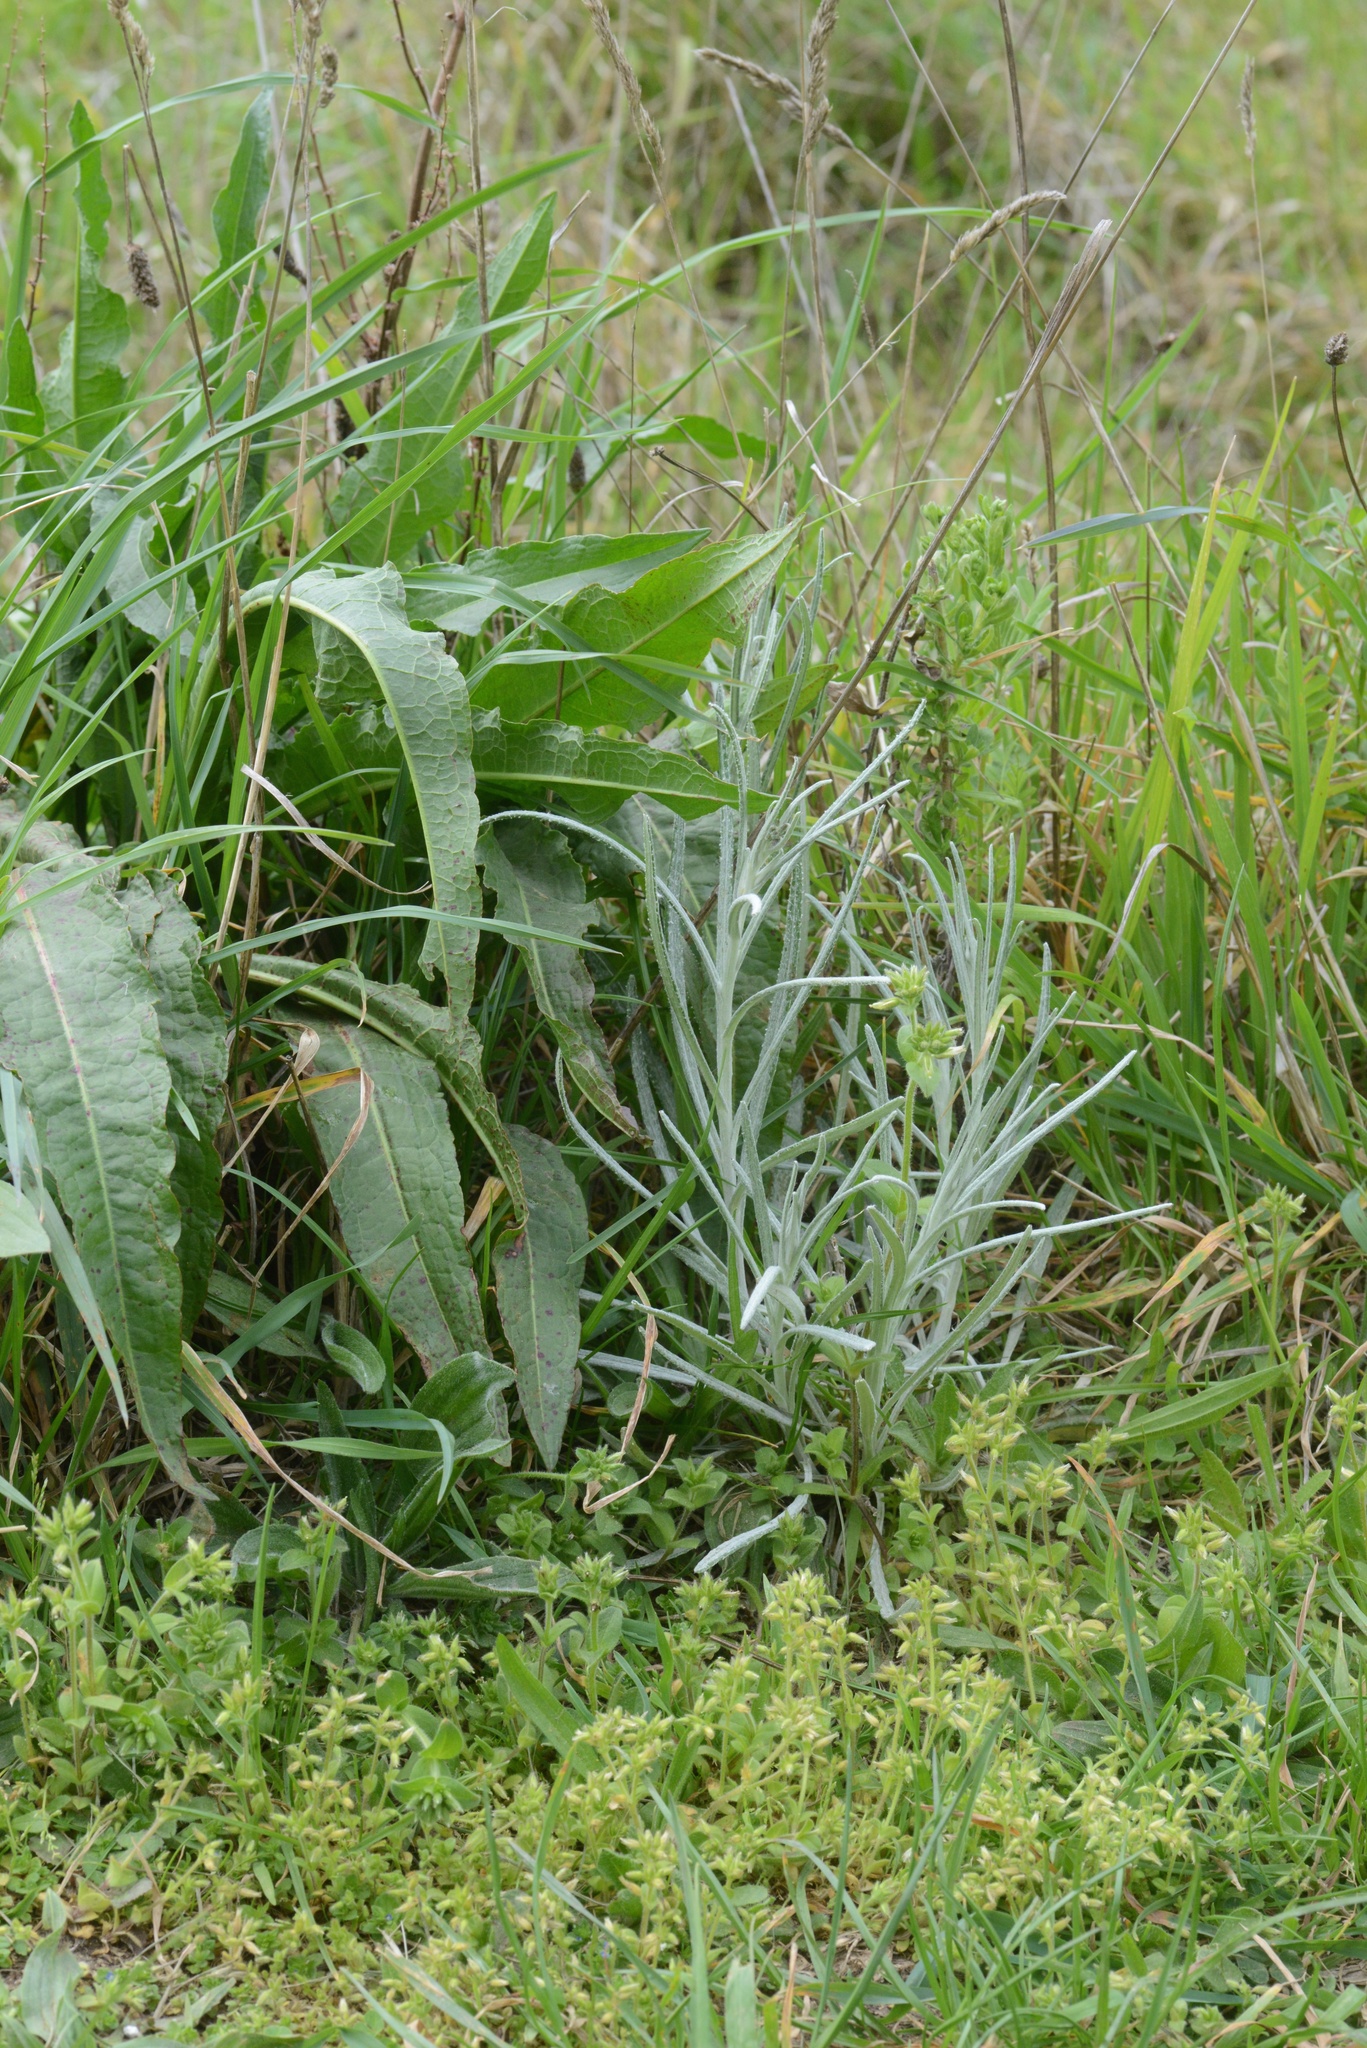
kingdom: Plantae
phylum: Tracheophyta
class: Magnoliopsida
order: Asterales
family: Asteraceae
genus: Senecio
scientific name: Senecio quadridentatus
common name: Cotton fireweed
